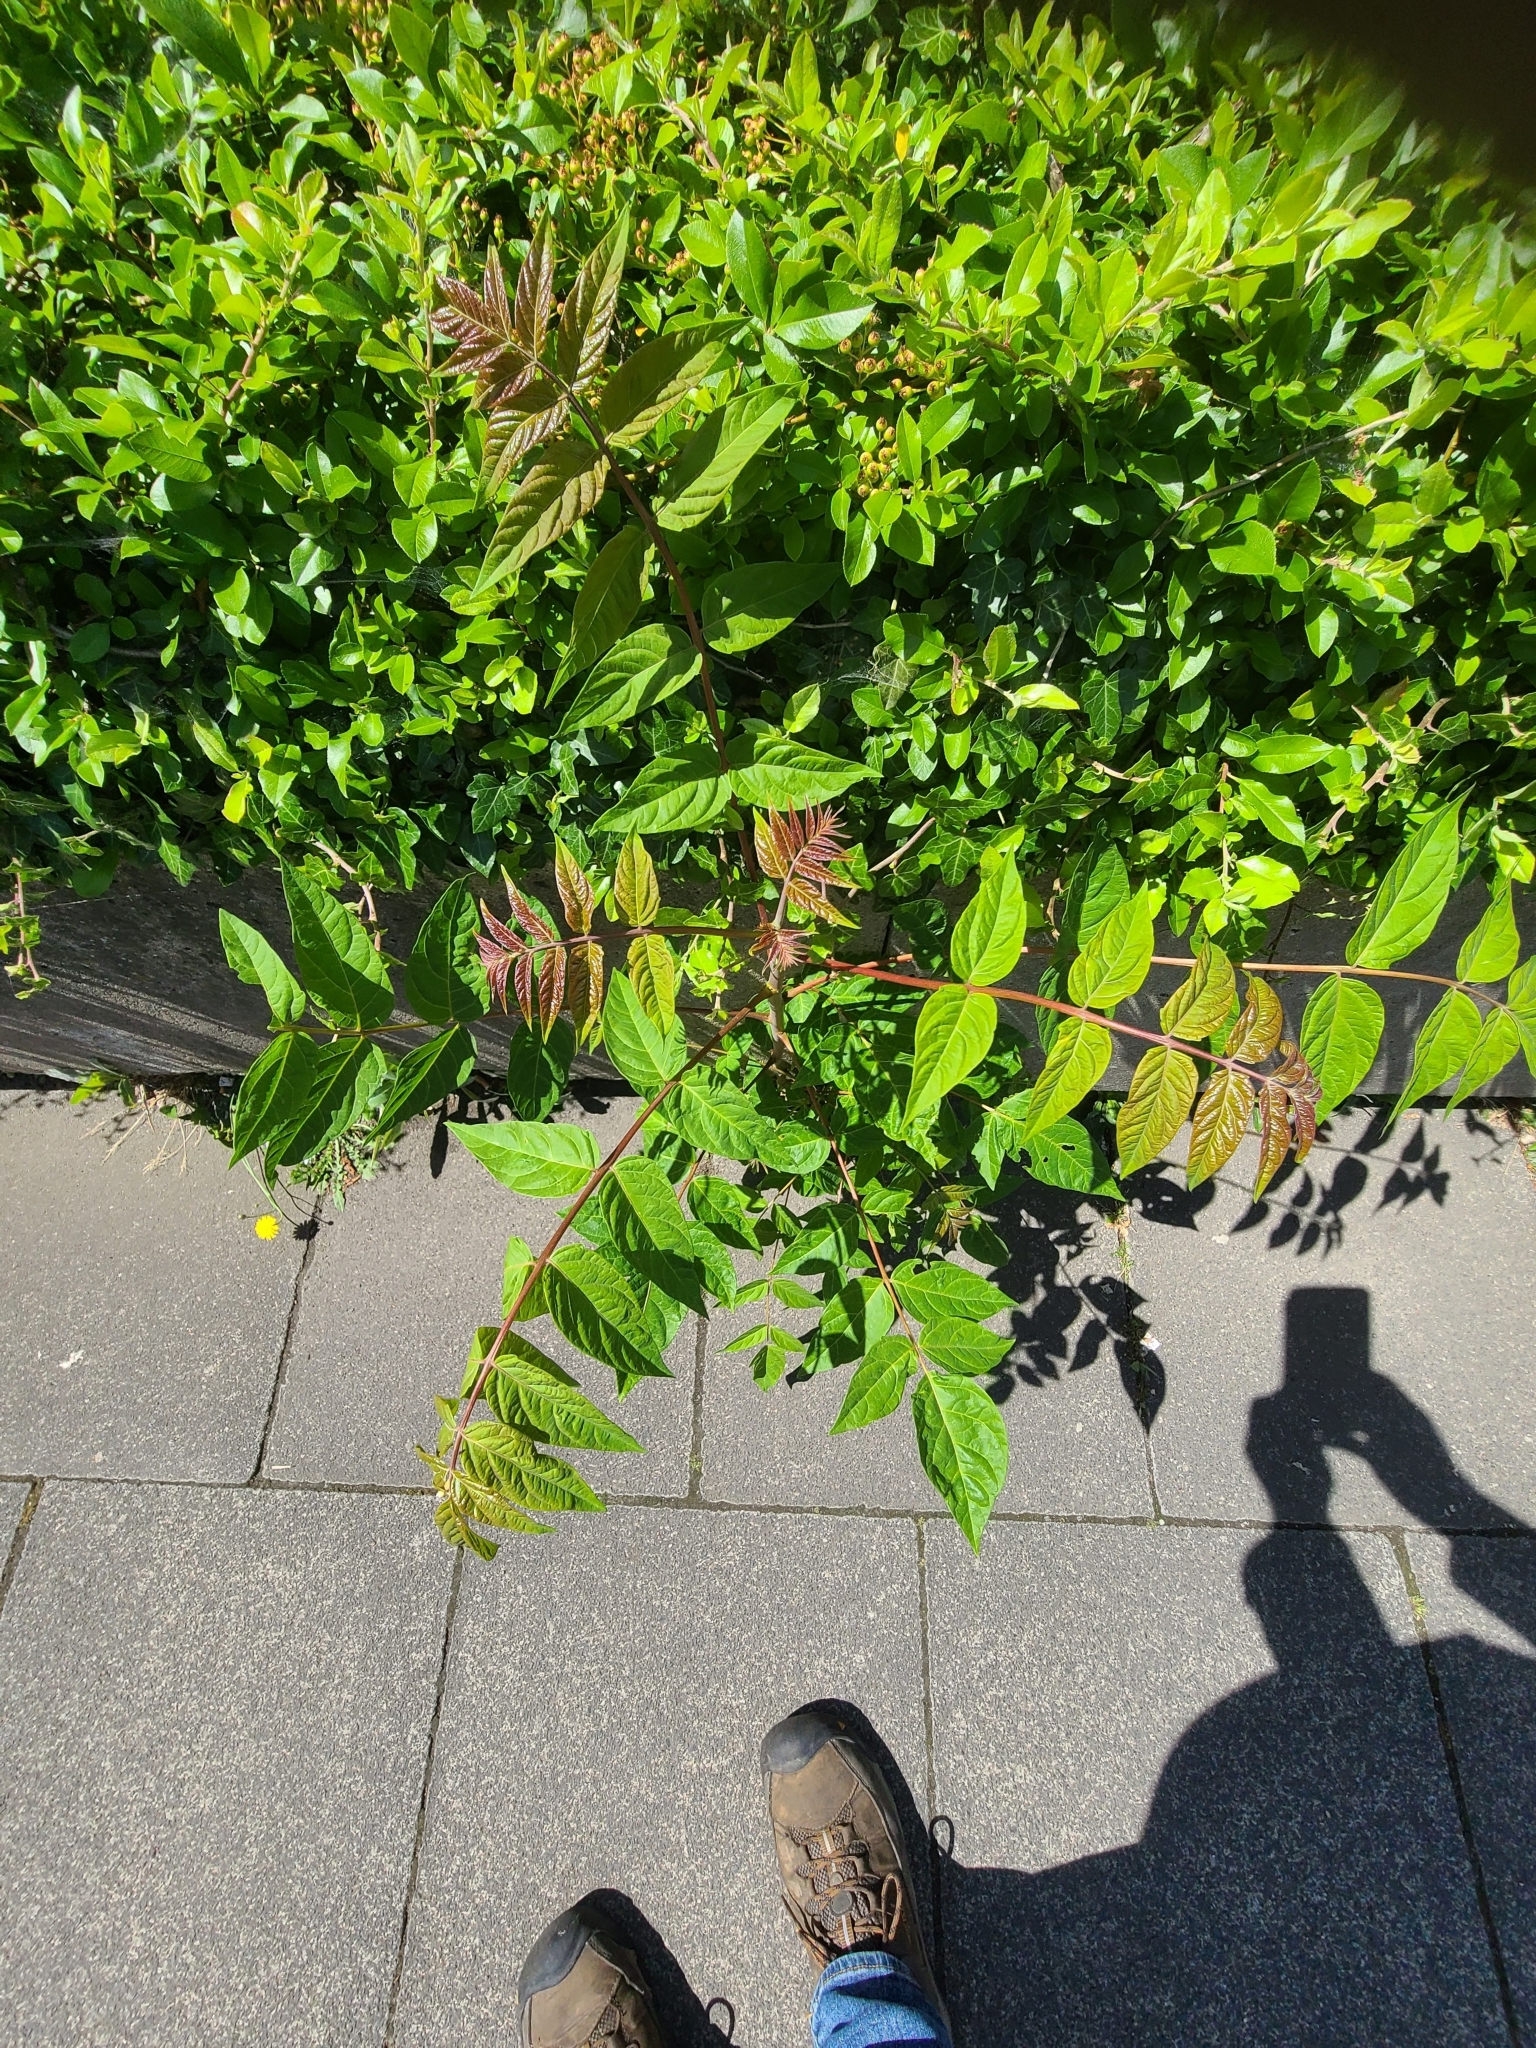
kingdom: Plantae
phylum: Tracheophyta
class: Magnoliopsida
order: Sapindales
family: Simaroubaceae
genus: Ailanthus
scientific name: Ailanthus altissima
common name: Tree-of-heaven
